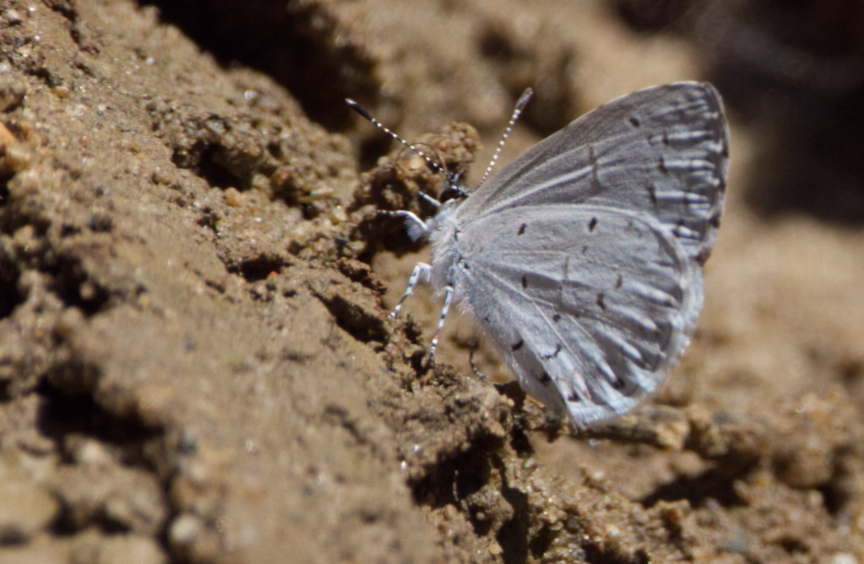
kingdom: Animalia
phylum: Arthropoda
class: Insecta
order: Lepidoptera
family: Lycaenidae
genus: Cyaniris
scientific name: Cyaniris neglecta
